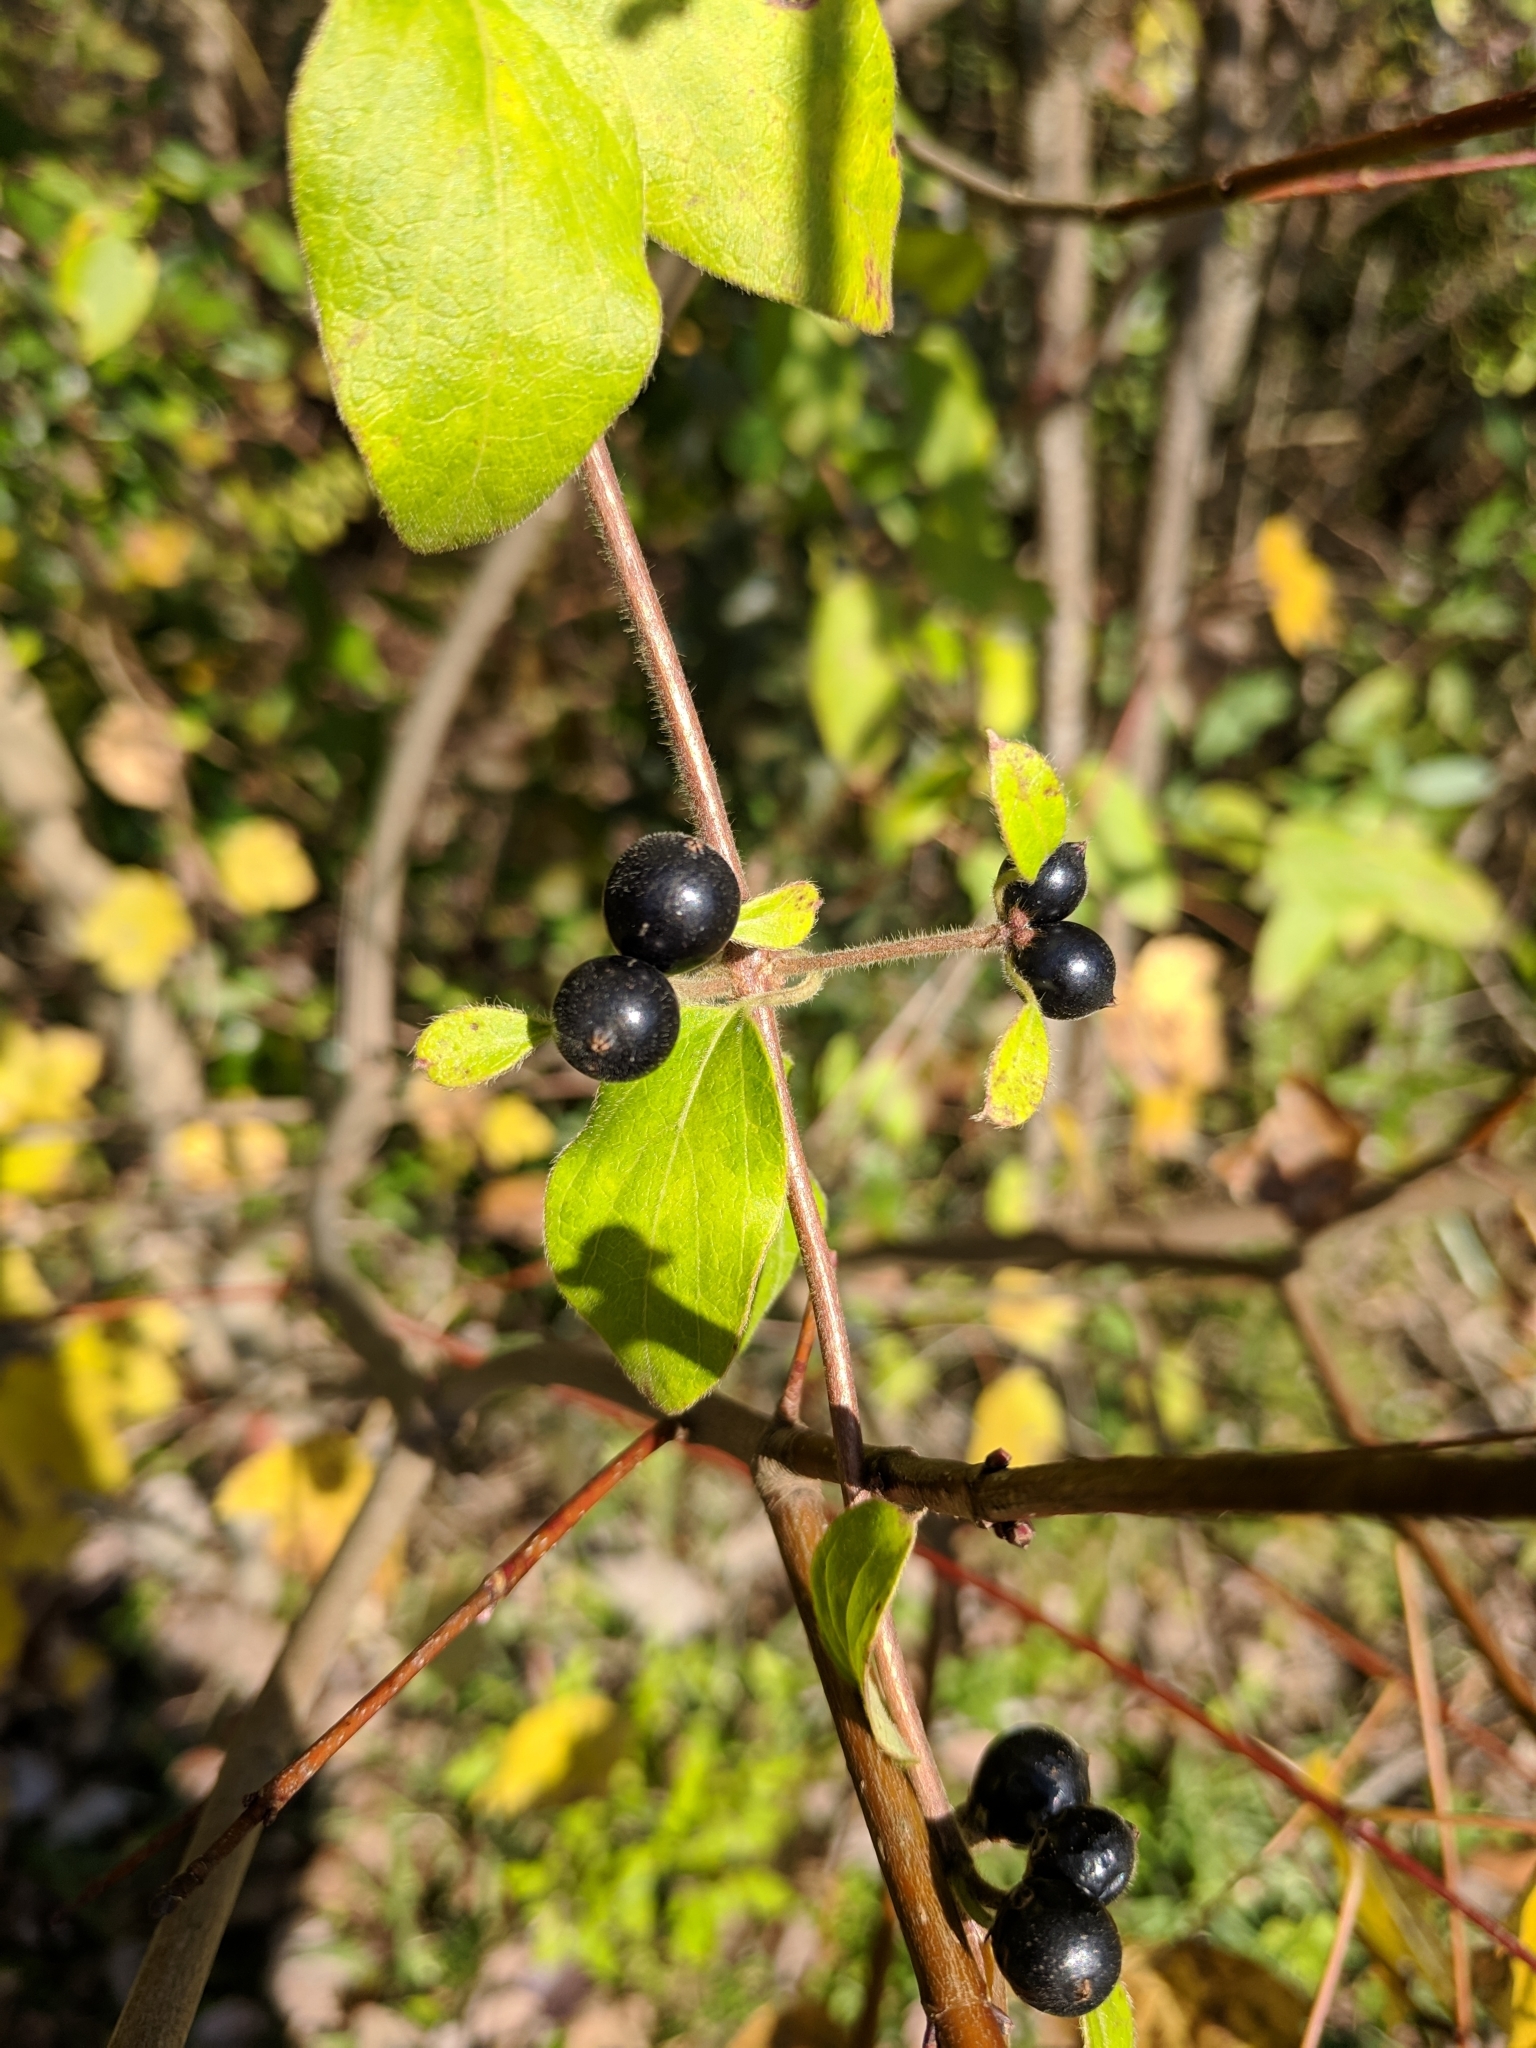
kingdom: Plantae
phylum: Tracheophyta
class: Magnoliopsida
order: Dipsacales
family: Caprifoliaceae
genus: Lonicera
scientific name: Lonicera japonica
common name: Japanese honeysuckle
